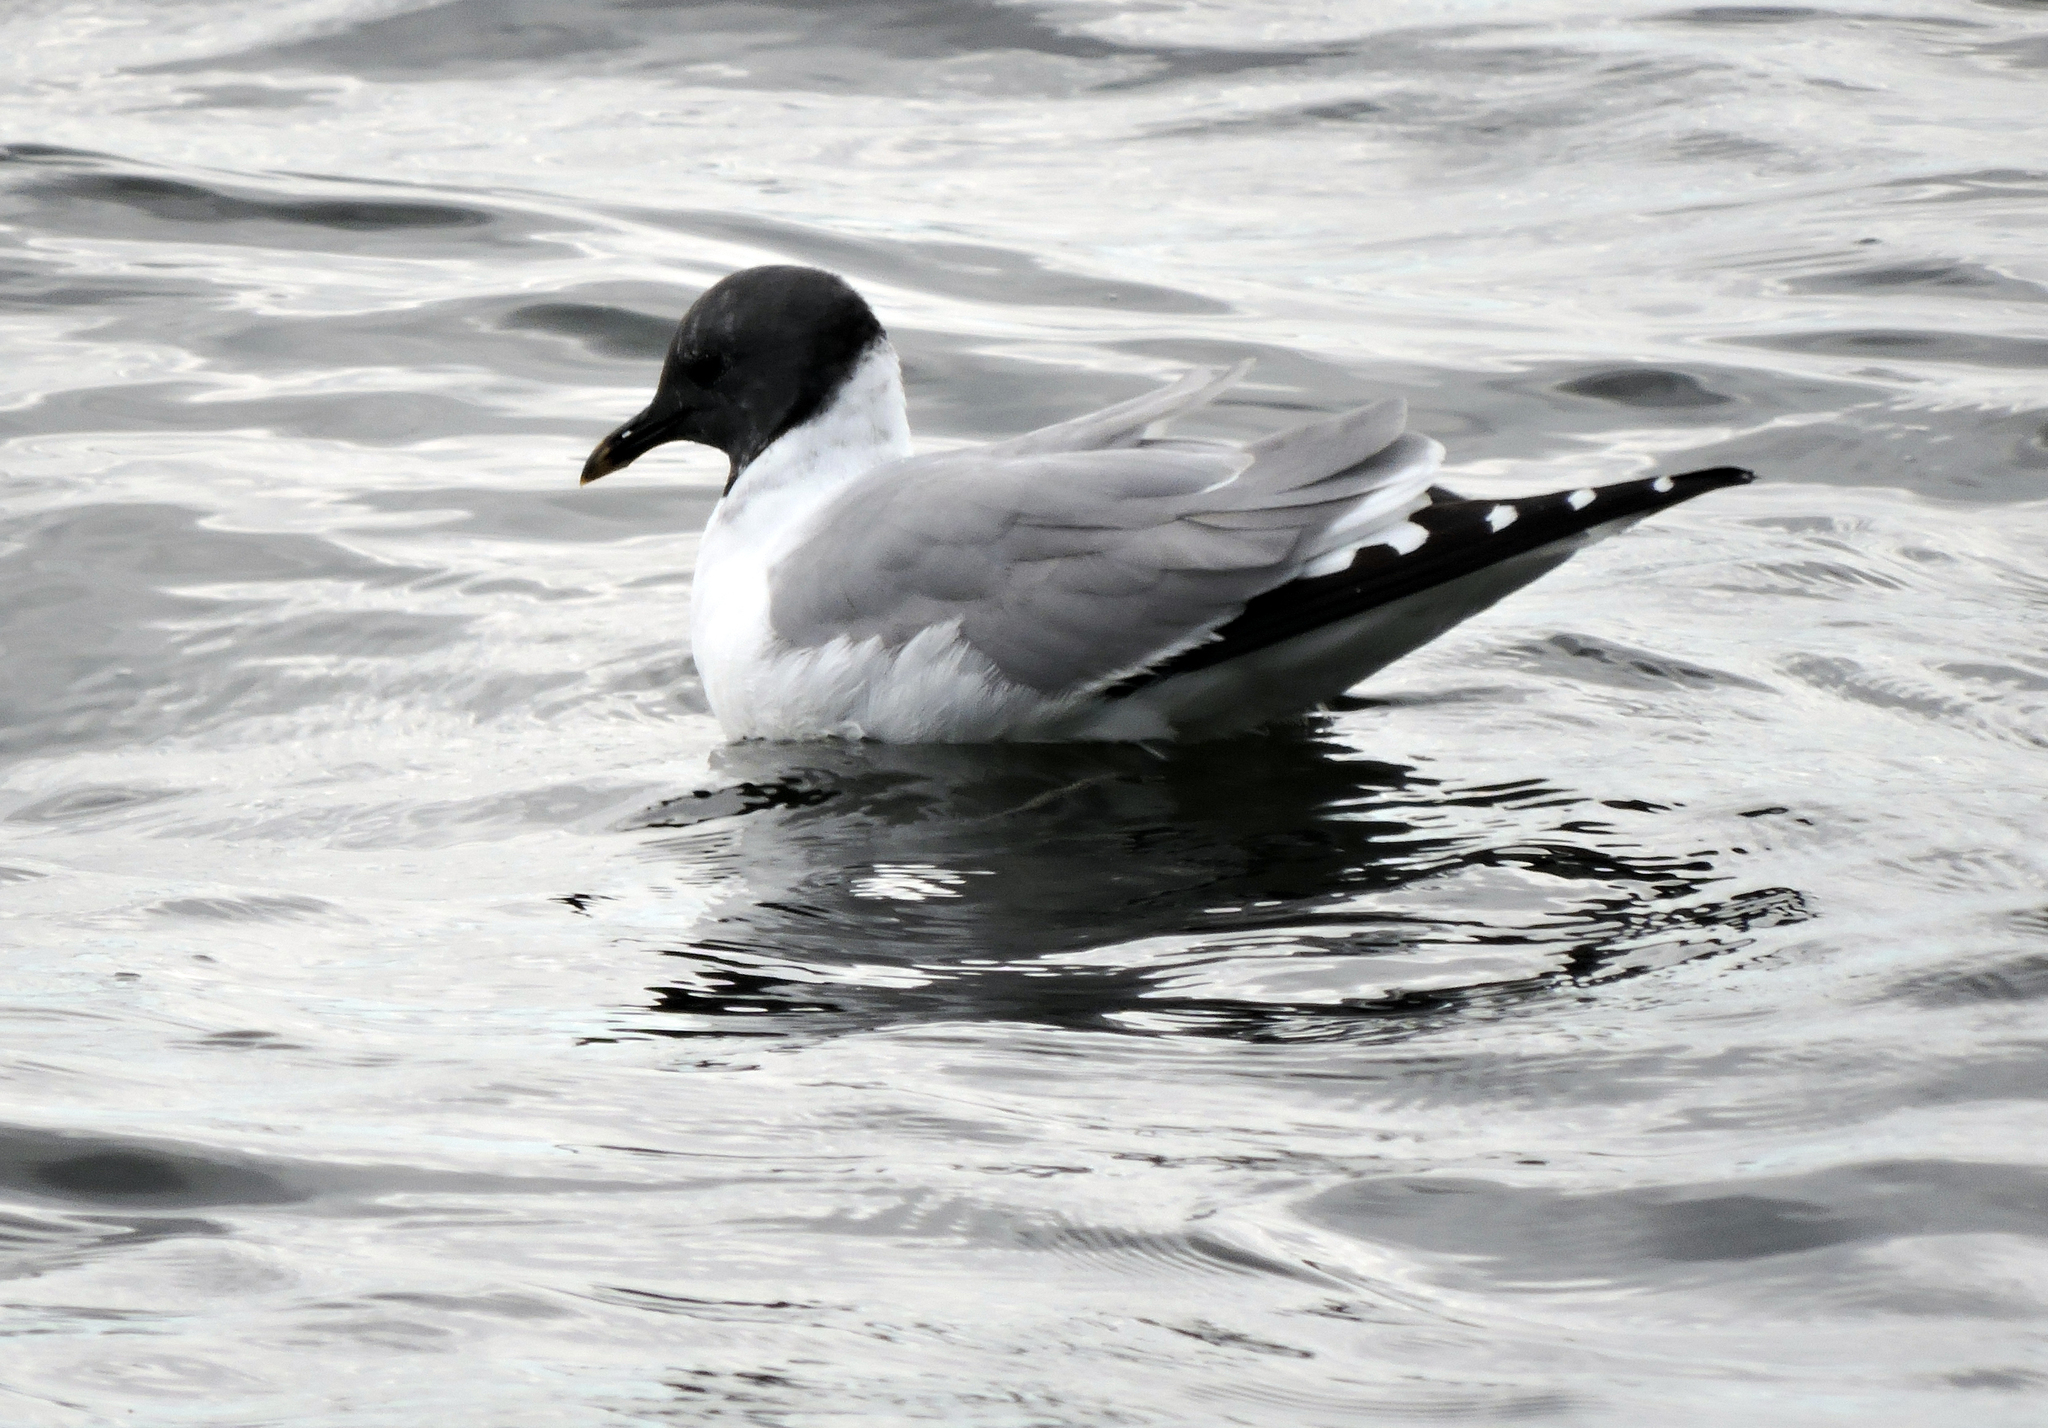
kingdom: Animalia
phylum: Chordata
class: Aves
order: Charadriiformes
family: Laridae
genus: Xema
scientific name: Xema sabini
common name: Sabine's gull
